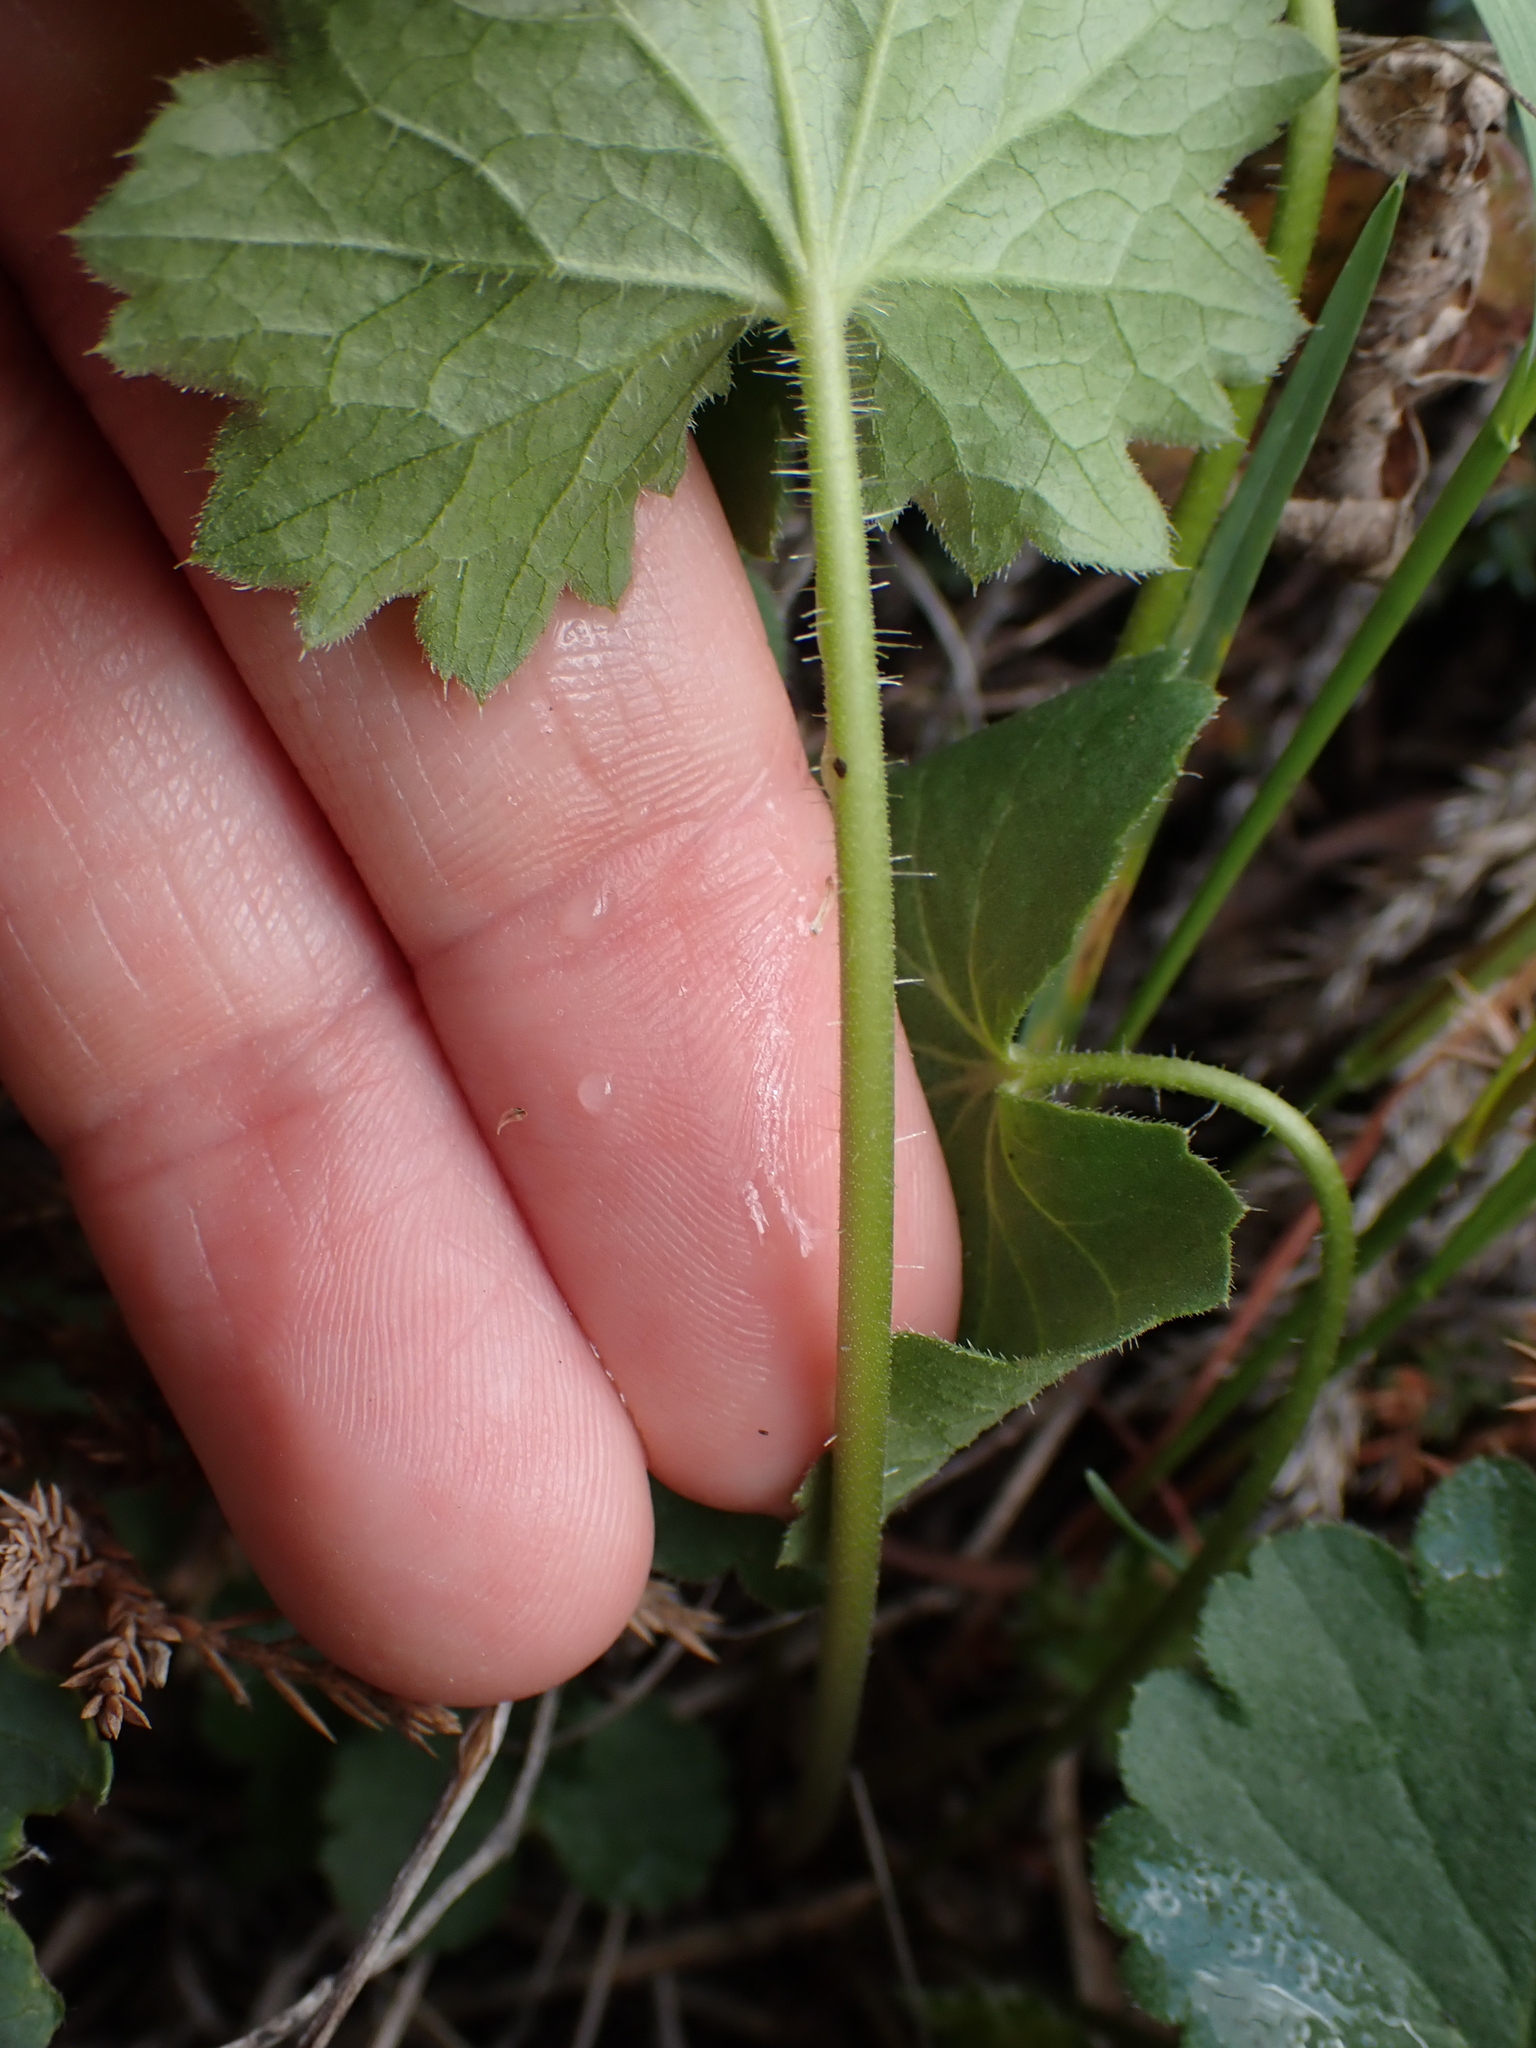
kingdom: Plantae
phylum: Tracheophyta
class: Magnoliopsida
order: Saxifragales
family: Saxifragaceae
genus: Heuchera
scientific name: Heuchera richardsonii
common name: Richardson's alumroot
